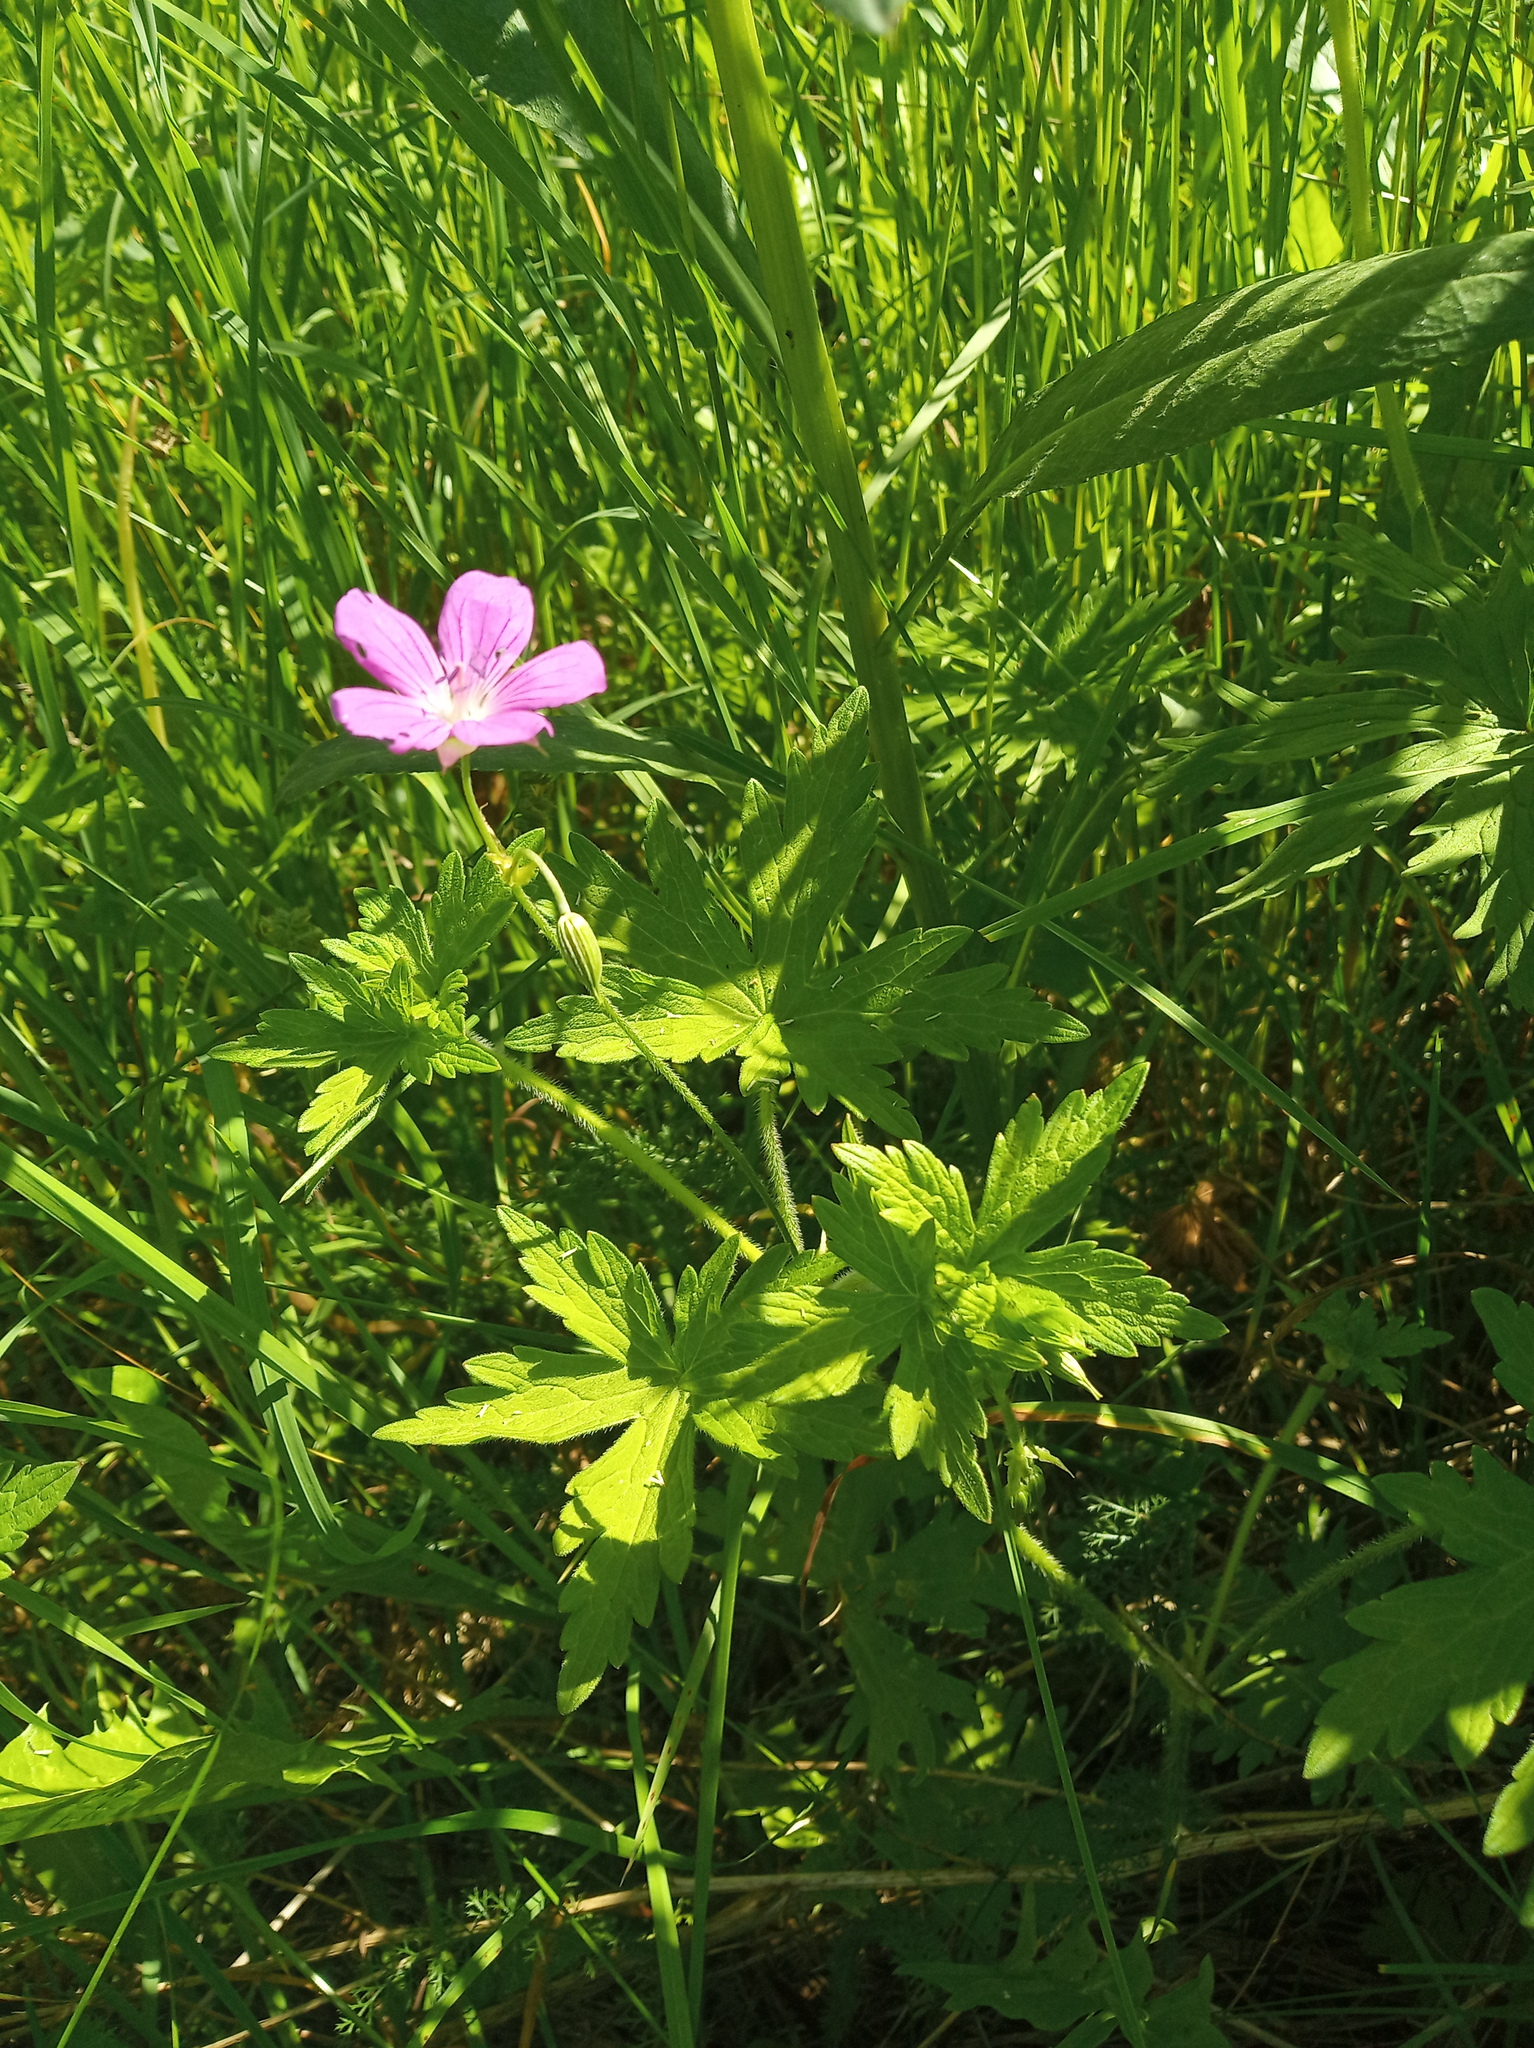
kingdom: Plantae
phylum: Tracheophyta
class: Magnoliopsida
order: Geraniales
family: Geraniaceae
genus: Geranium
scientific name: Geranium palustre
